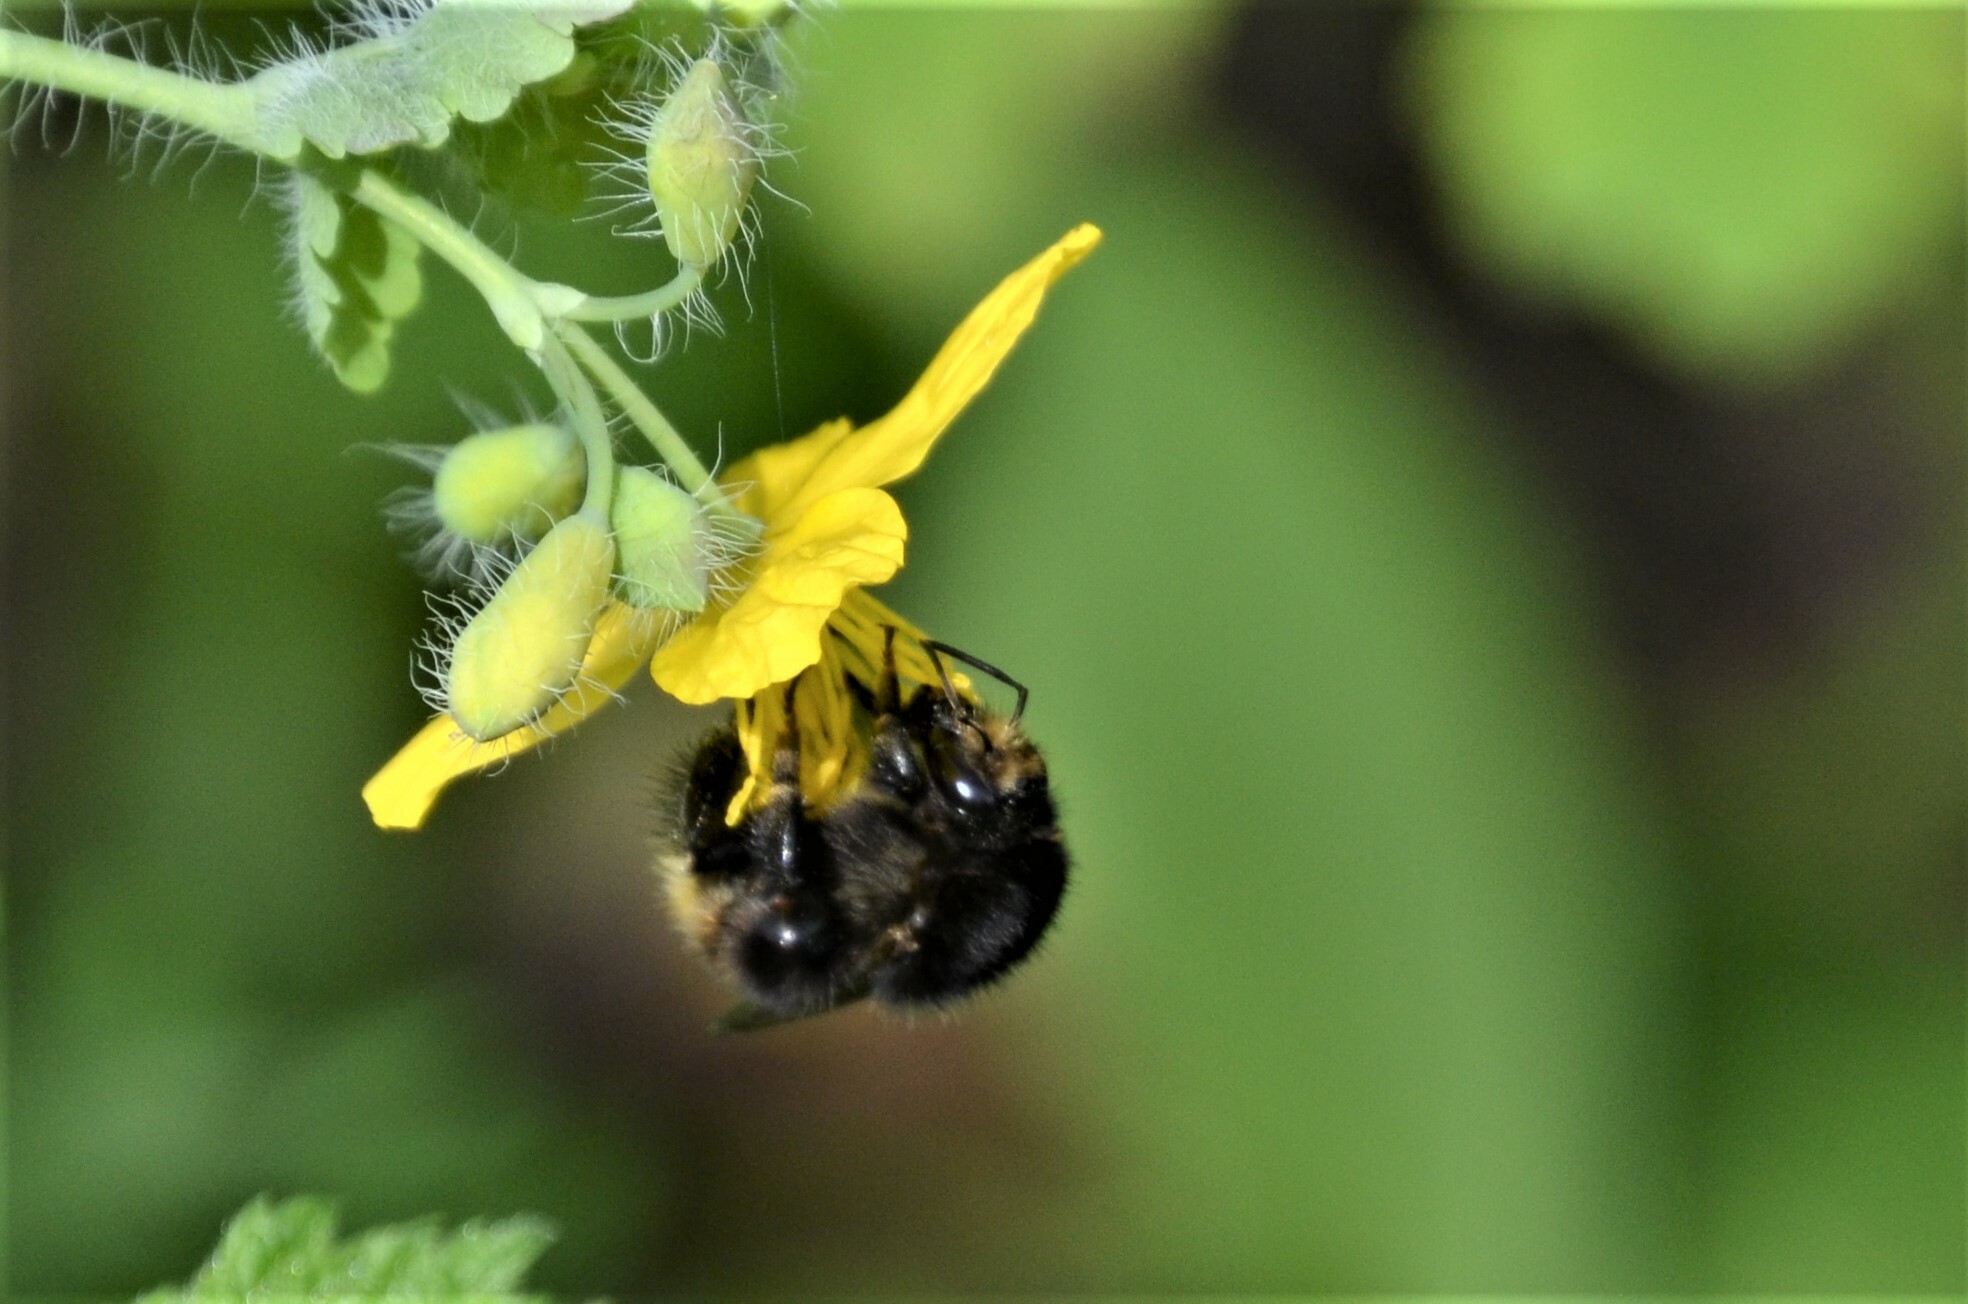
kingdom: Animalia
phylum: Arthropoda
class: Insecta
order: Hymenoptera
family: Apidae
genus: Bombus
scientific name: Bombus humilis
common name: Brown-banded carder-bee
